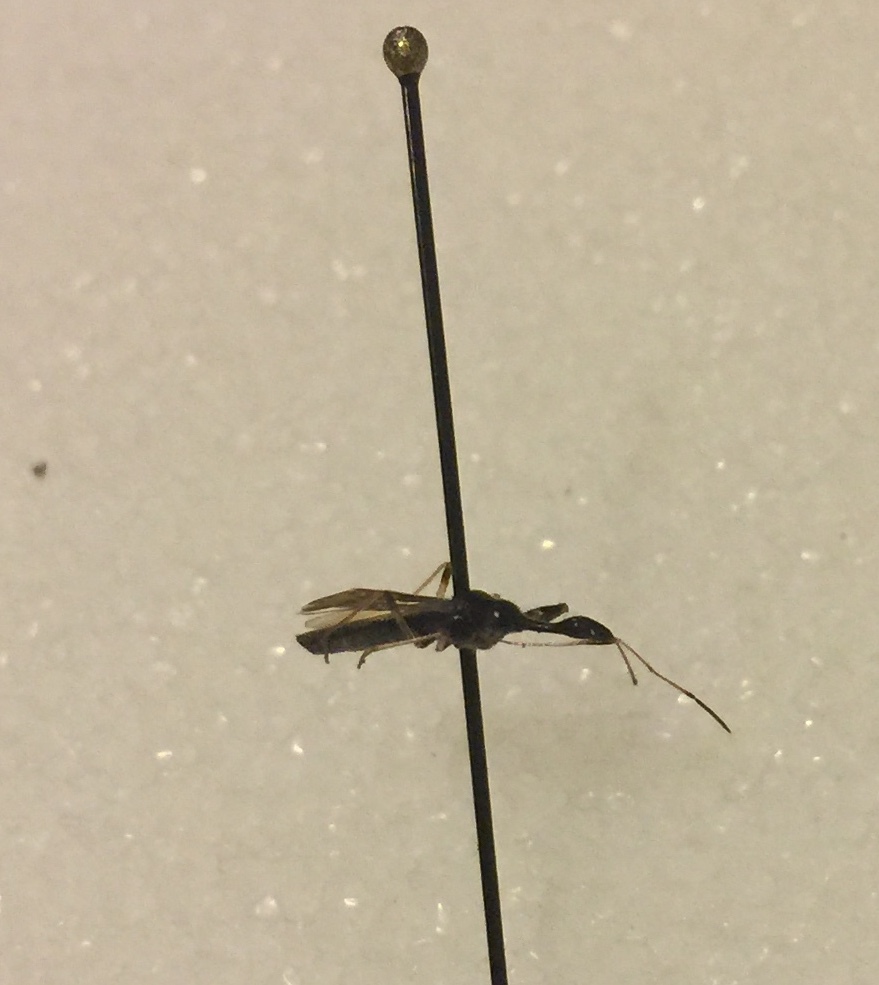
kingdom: Animalia
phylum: Arthropoda
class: Insecta
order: Hemiptera
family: Rhyparochromidae
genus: Myodocha
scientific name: Myodocha serripes
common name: Long-necked seed bug
